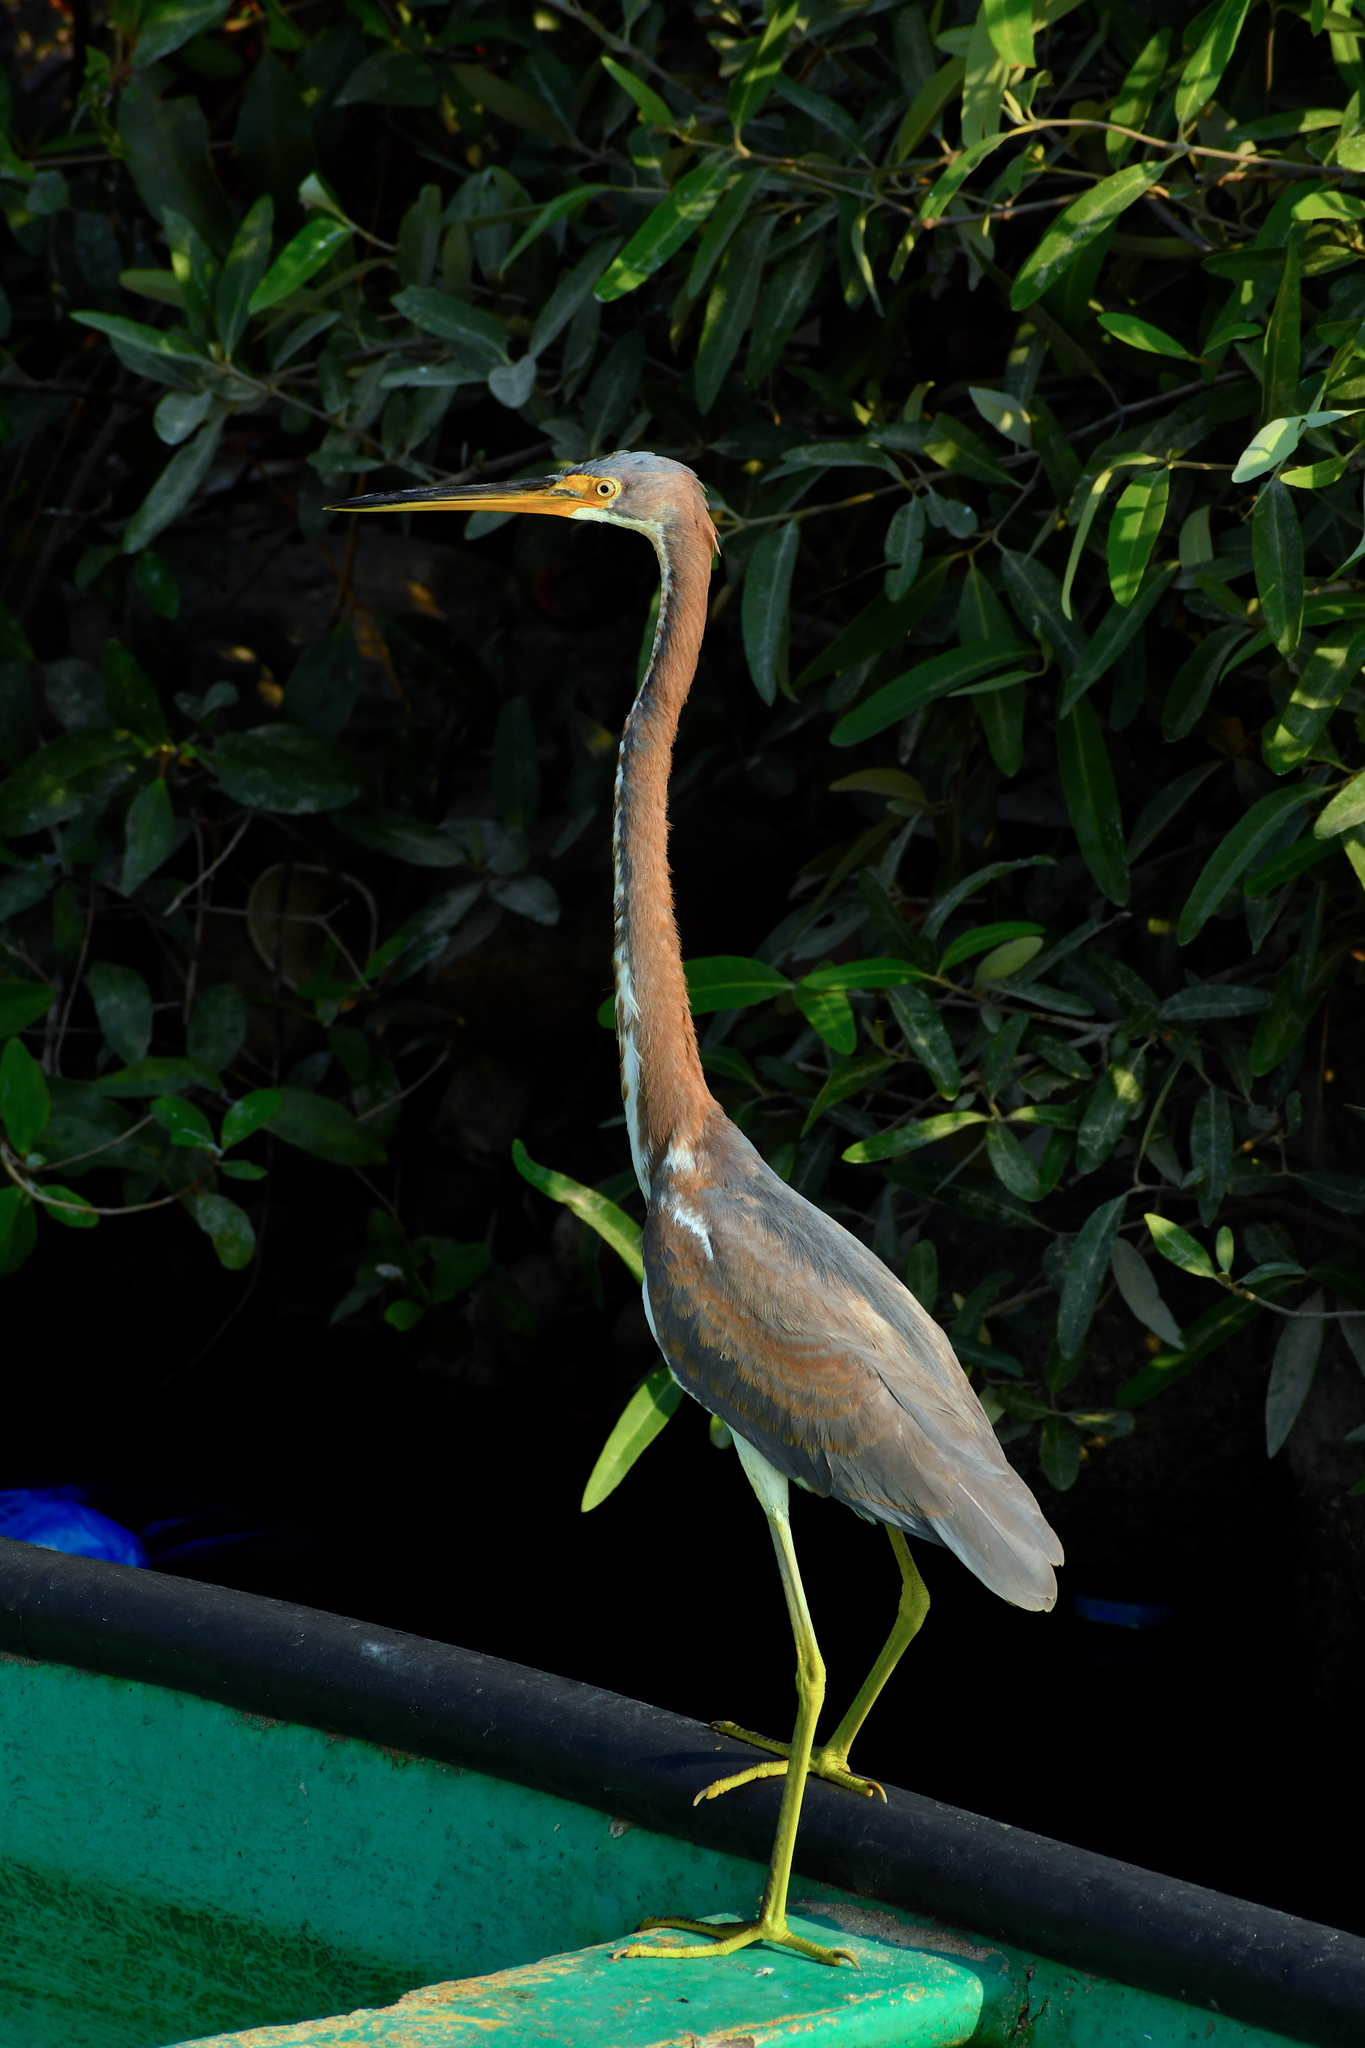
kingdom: Animalia
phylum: Chordata
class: Aves
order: Pelecaniformes
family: Ardeidae
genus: Egretta
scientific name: Egretta tricolor
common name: Tricolored heron
